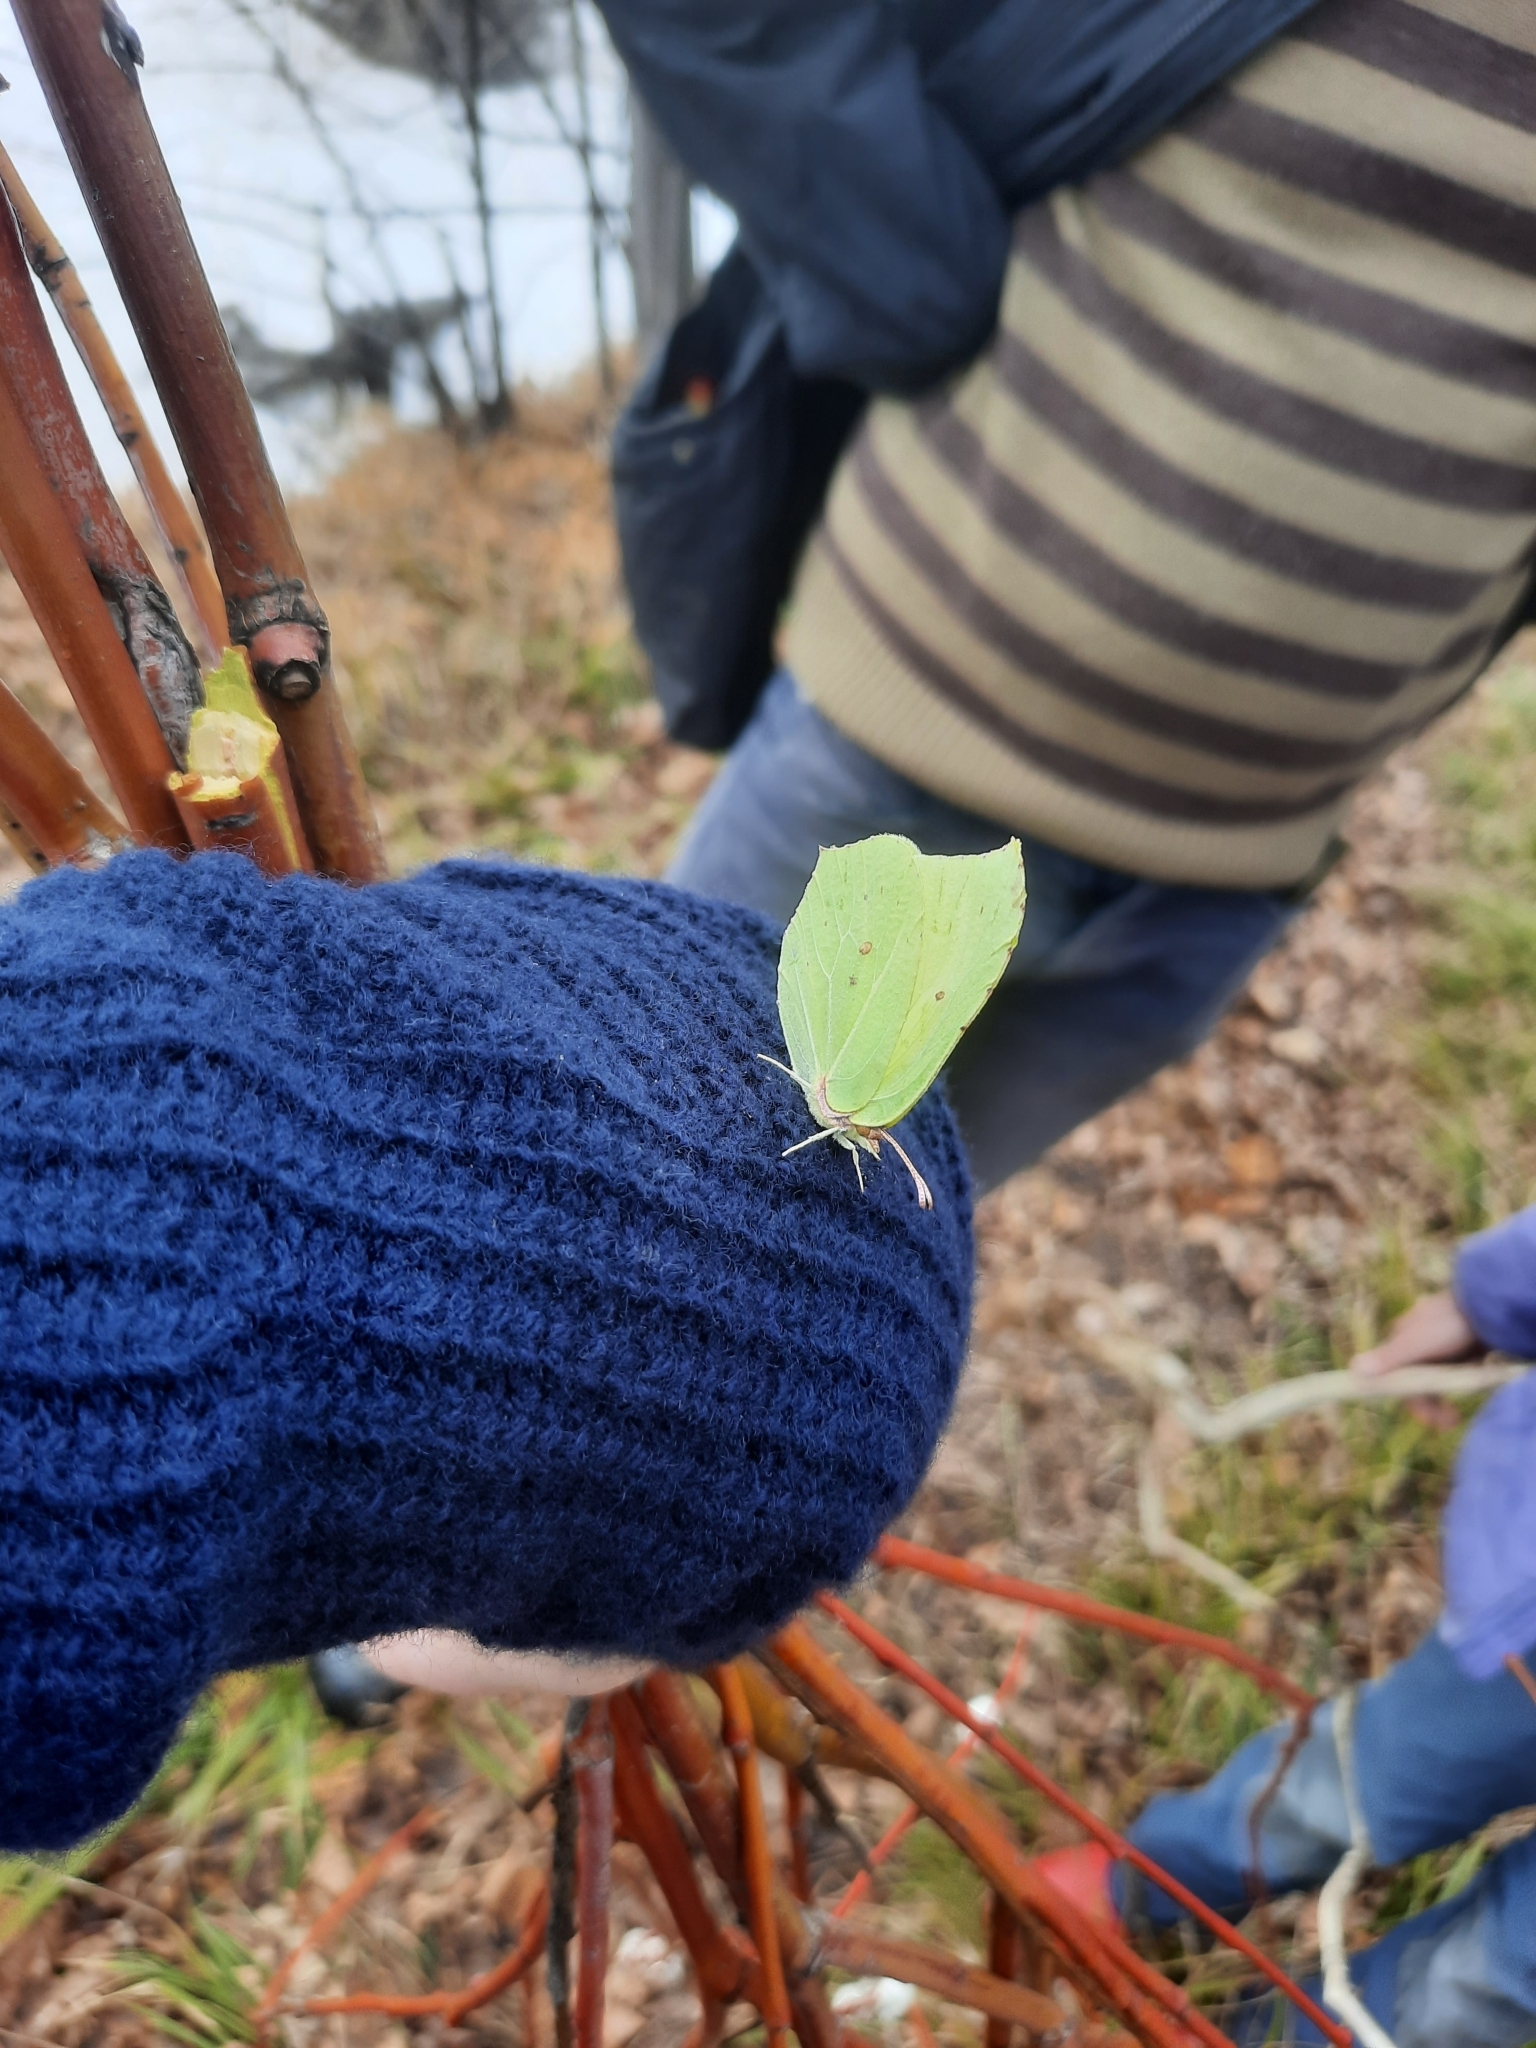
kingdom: Animalia
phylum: Arthropoda
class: Insecta
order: Lepidoptera
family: Pieridae
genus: Gonepteryx
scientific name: Gonepteryx rhamni
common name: Brimstone
